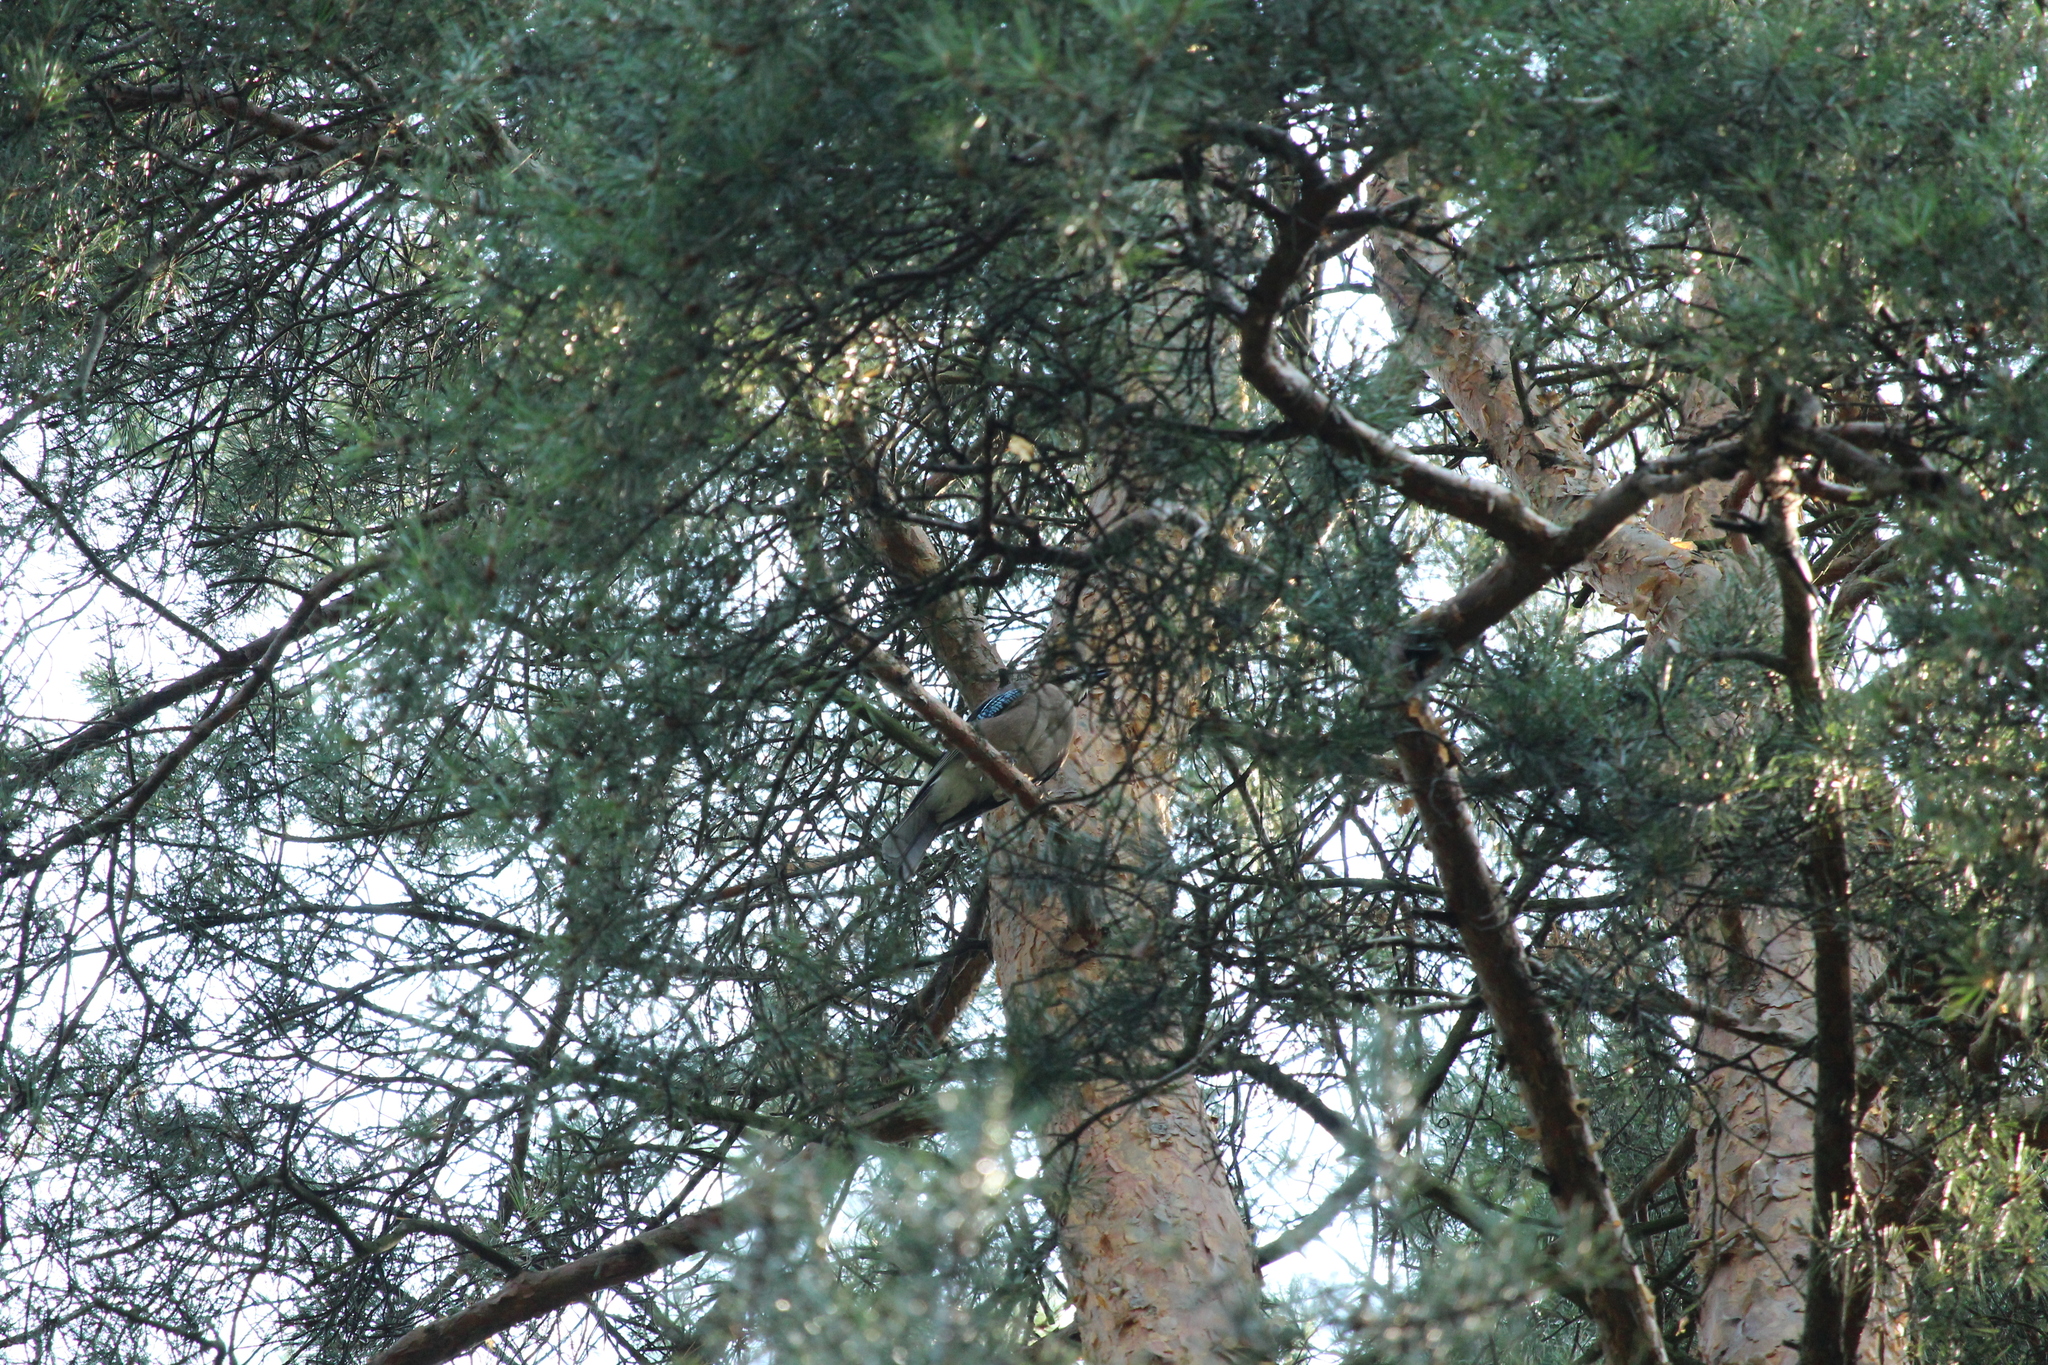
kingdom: Animalia
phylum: Chordata
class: Aves
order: Passeriformes
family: Corvidae
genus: Garrulus
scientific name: Garrulus glandarius
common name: Eurasian jay
